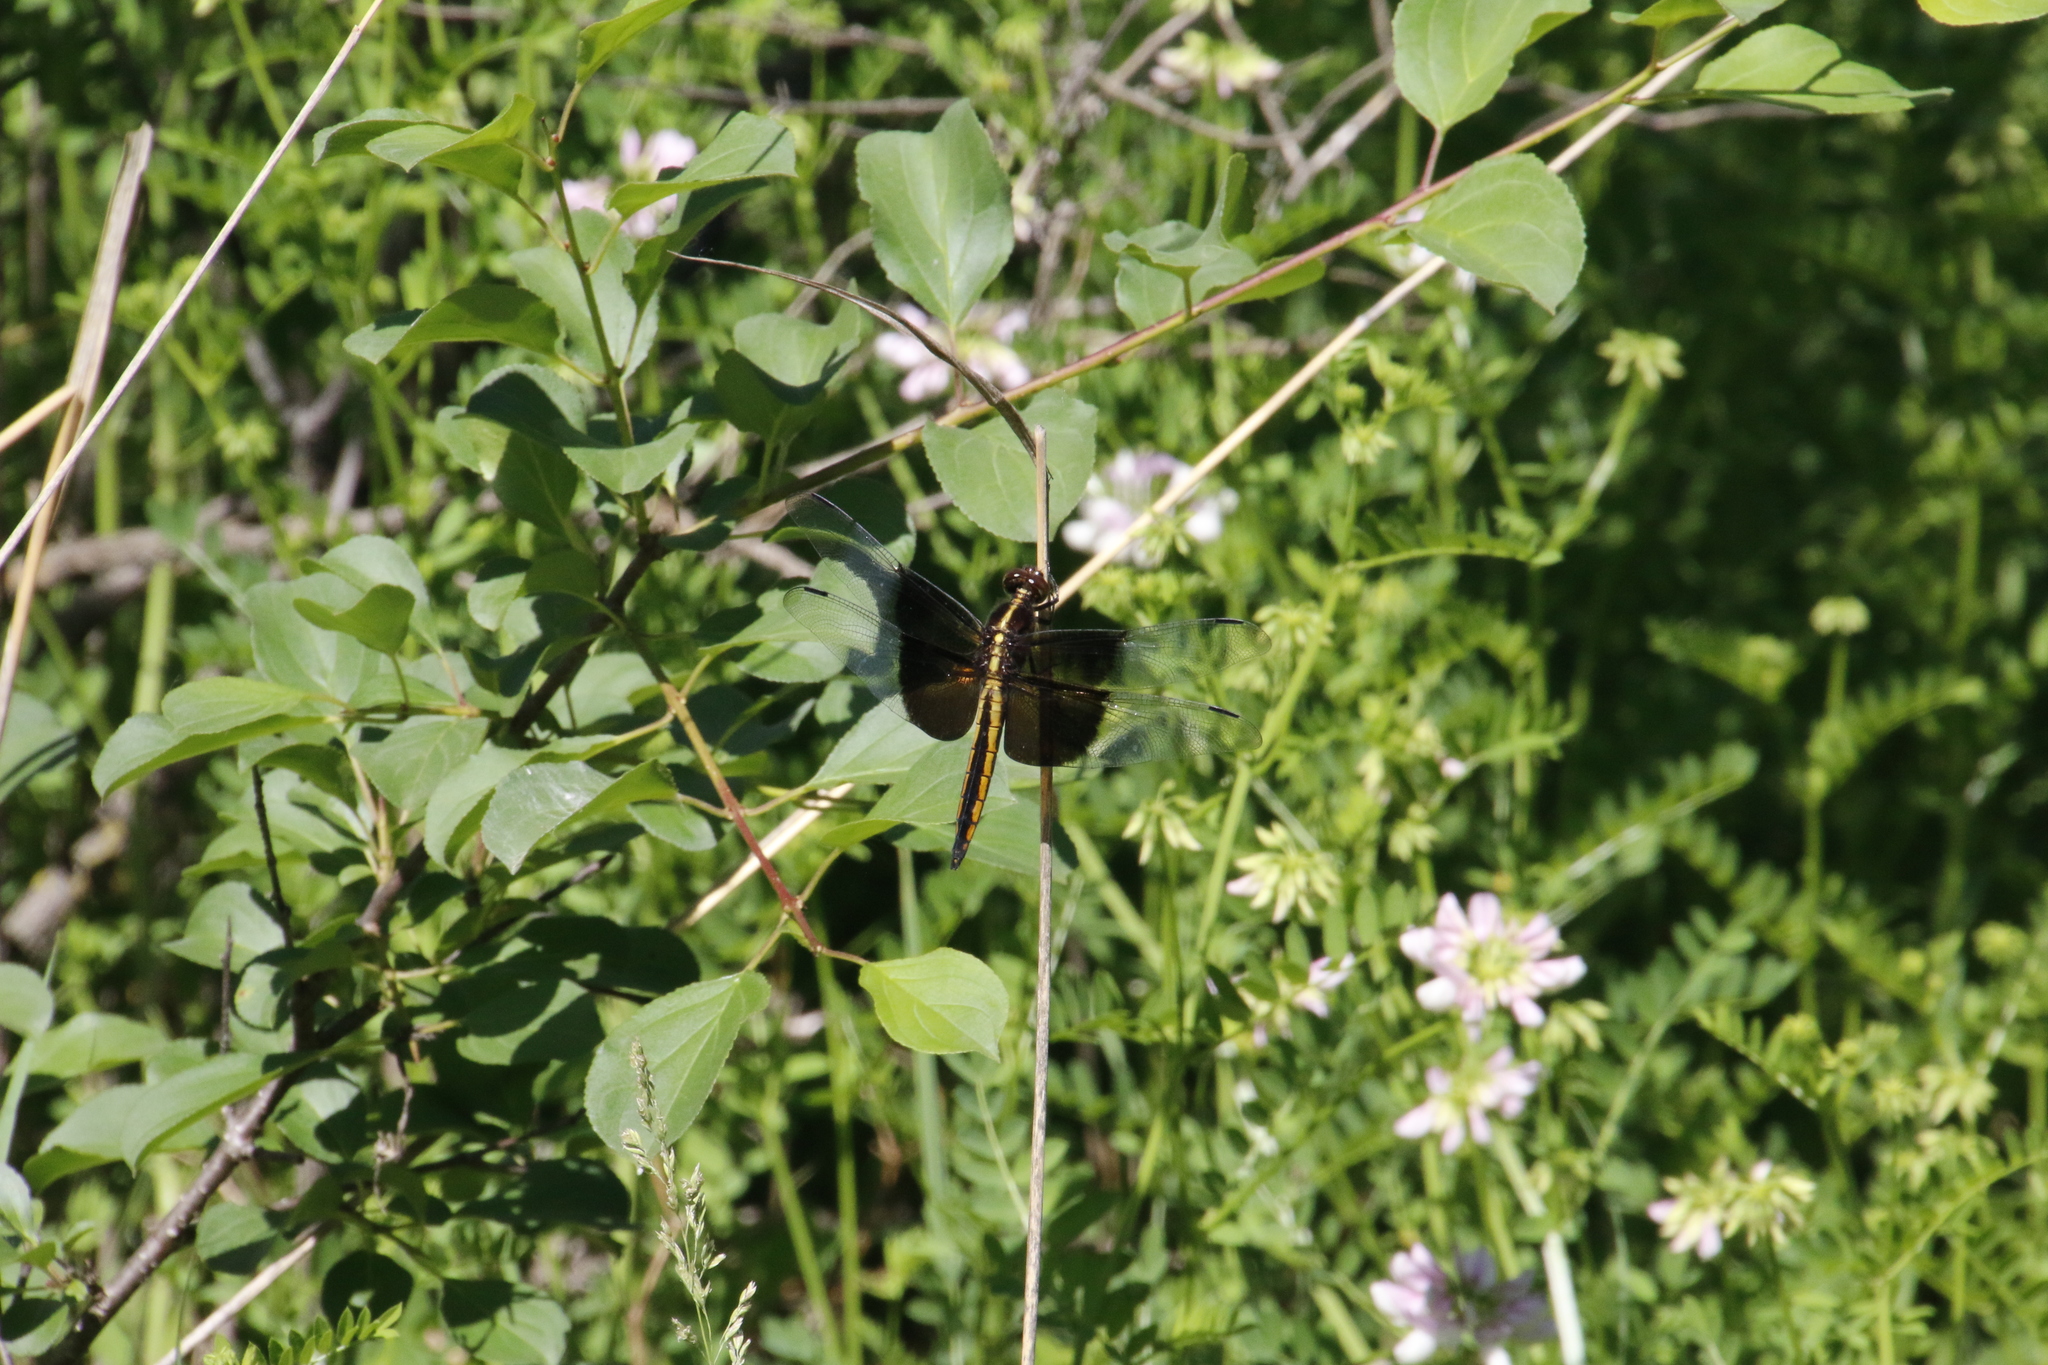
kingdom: Animalia
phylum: Arthropoda
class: Insecta
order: Odonata
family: Libellulidae
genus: Libellula
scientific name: Libellula luctuosa
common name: Widow skimmer
